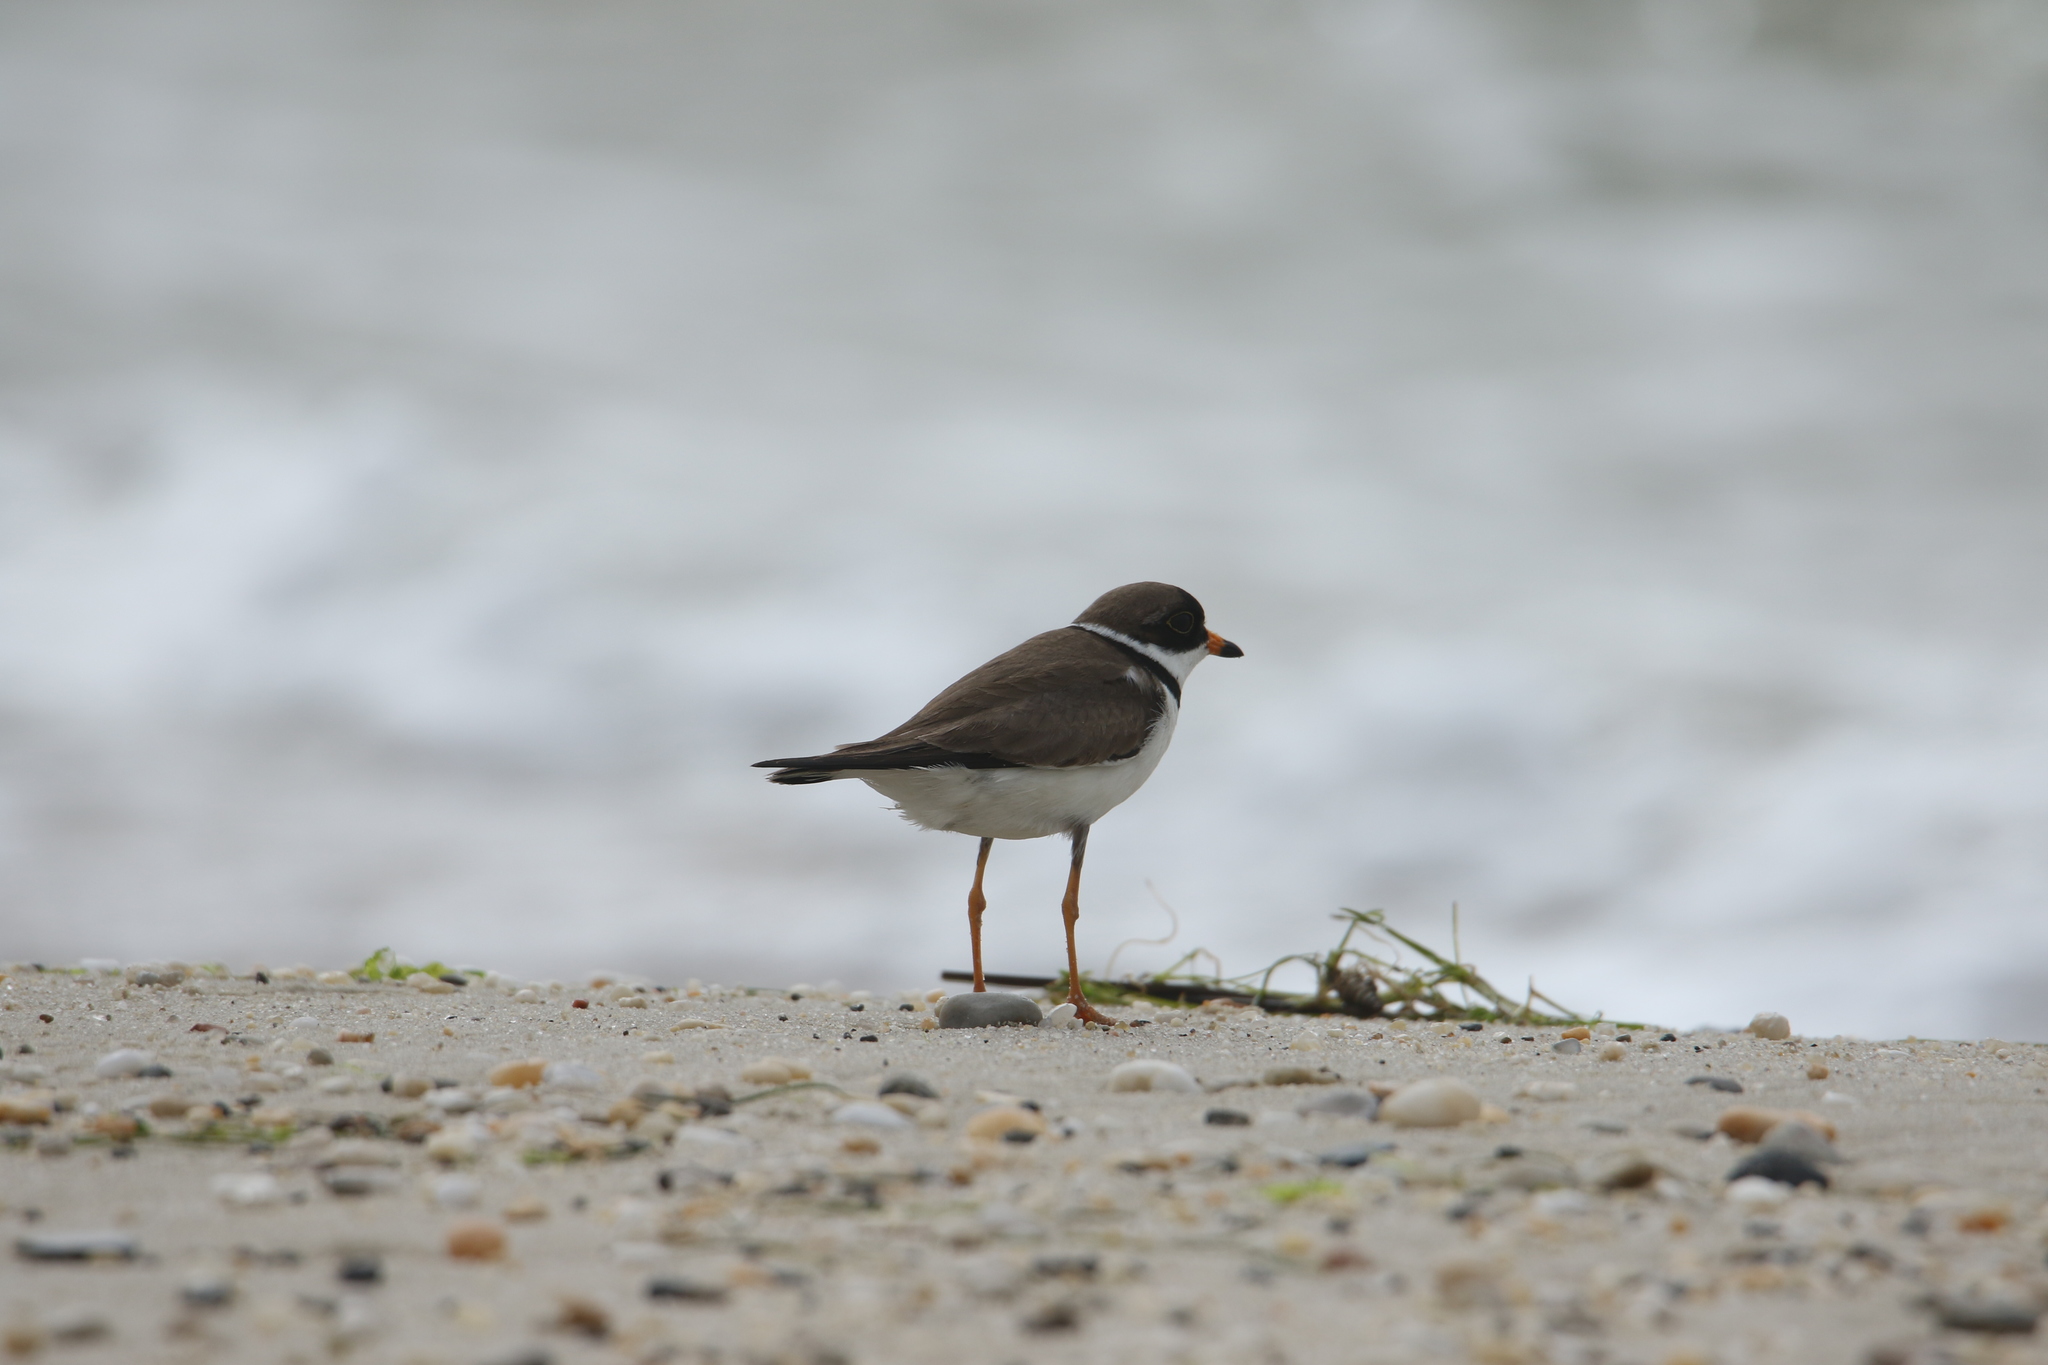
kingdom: Animalia
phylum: Chordata
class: Aves
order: Charadriiformes
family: Charadriidae
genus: Charadrius
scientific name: Charadrius semipalmatus
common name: Semipalmated plover
